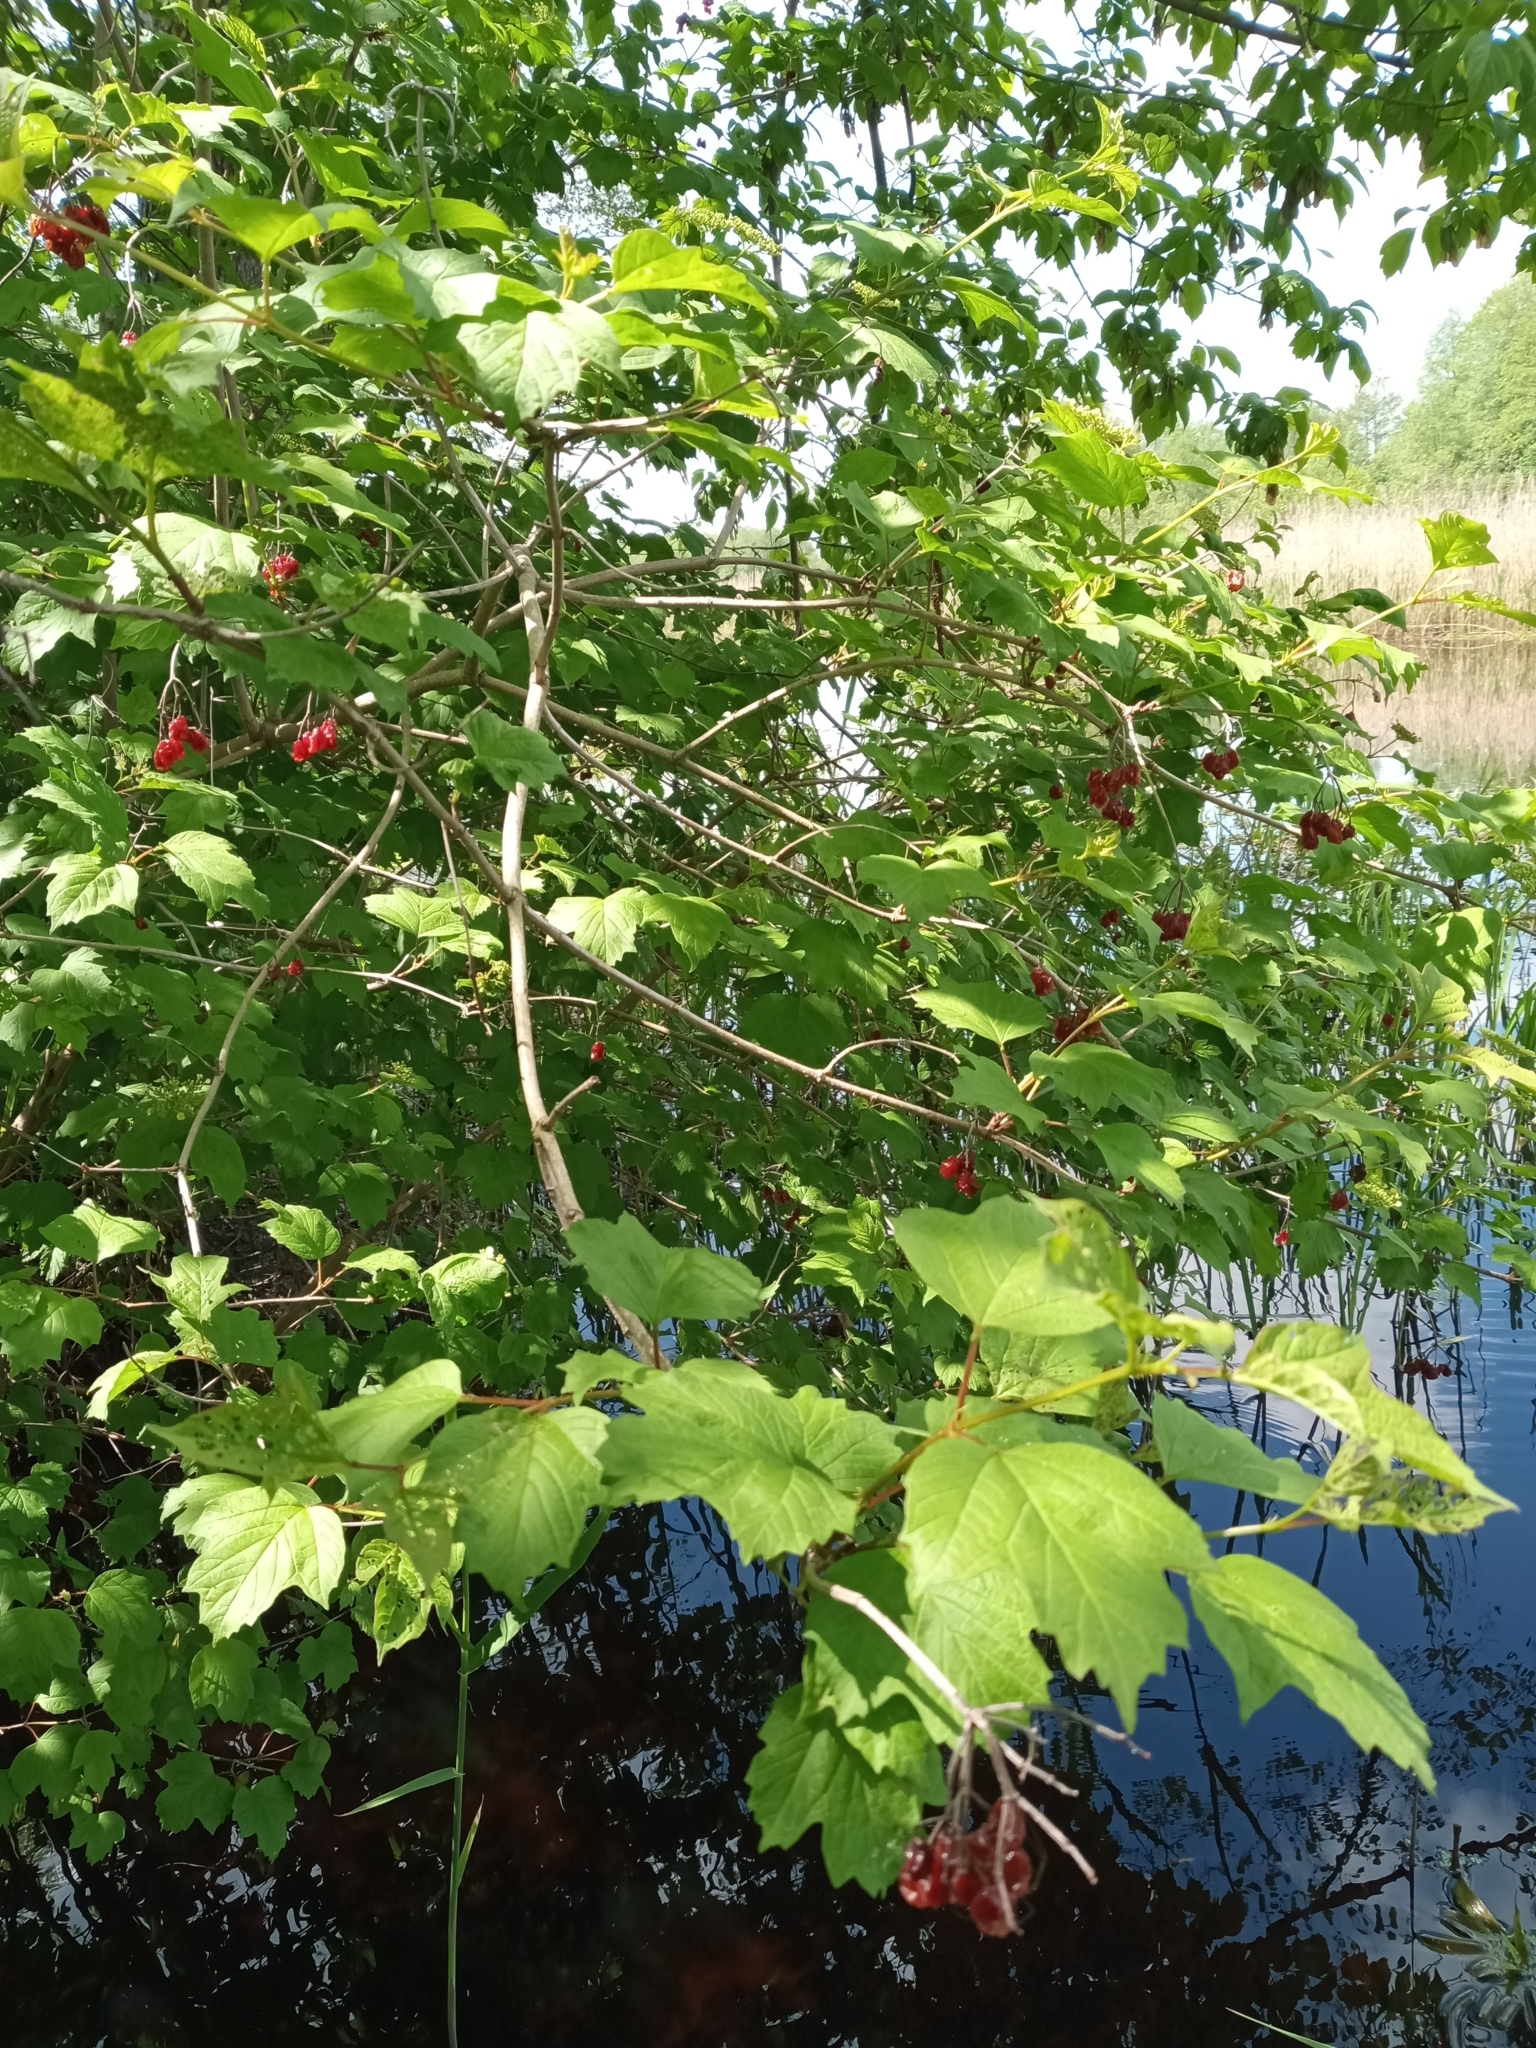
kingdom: Plantae
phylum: Tracheophyta
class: Magnoliopsida
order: Dipsacales
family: Viburnaceae
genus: Viburnum
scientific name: Viburnum opulus
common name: Guelder-rose
